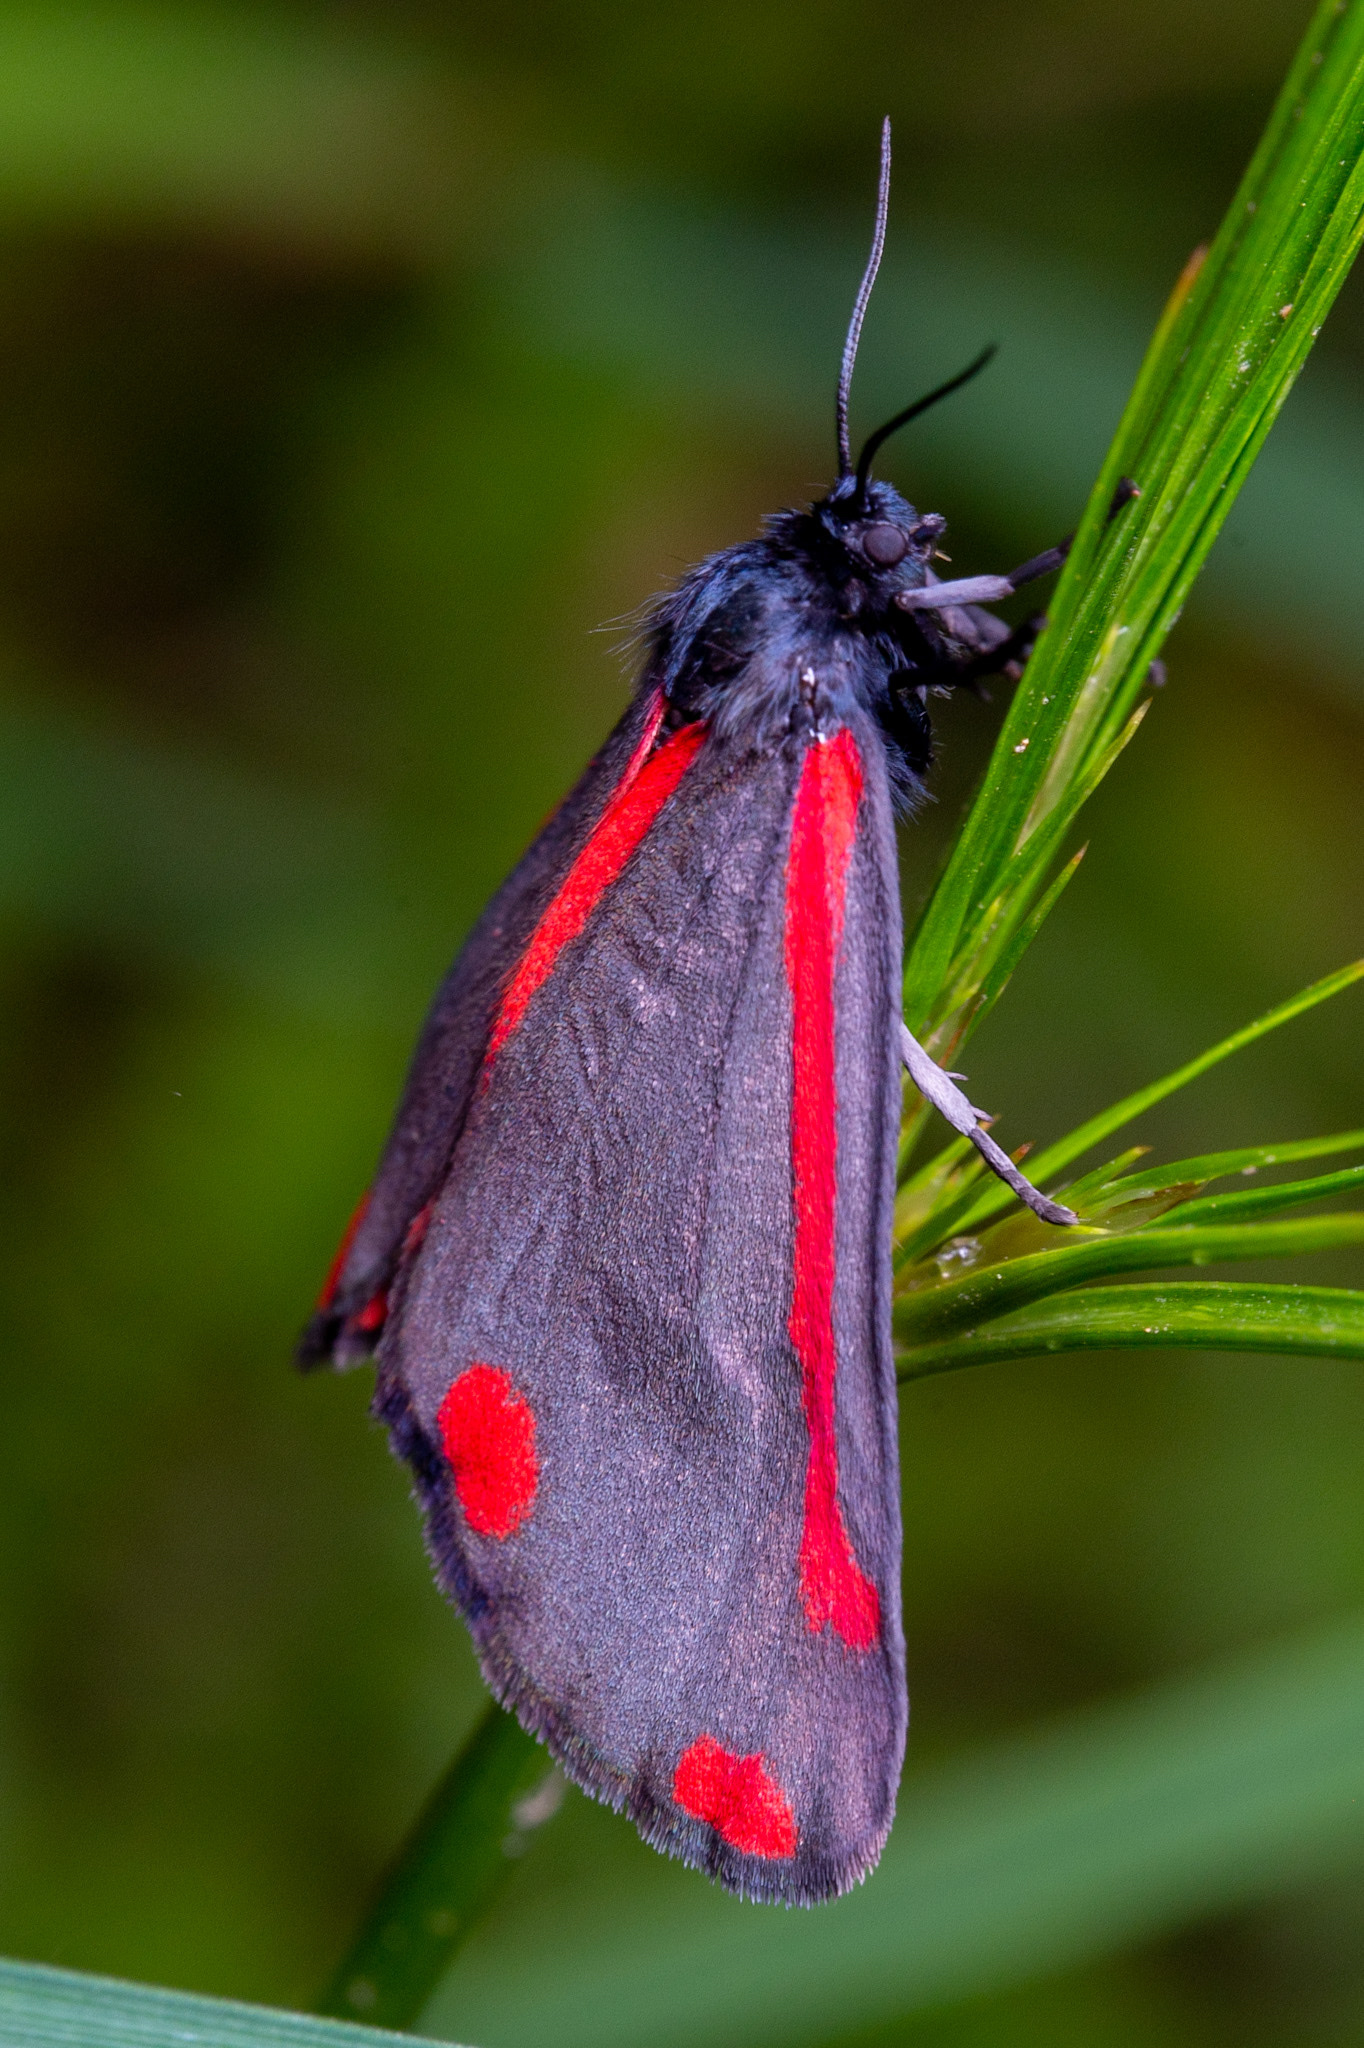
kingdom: Animalia
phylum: Arthropoda
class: Insecta
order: Lepidoptera
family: Erebidae
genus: Tyria
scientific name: Tyria jacobaeae
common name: Cinnabar
